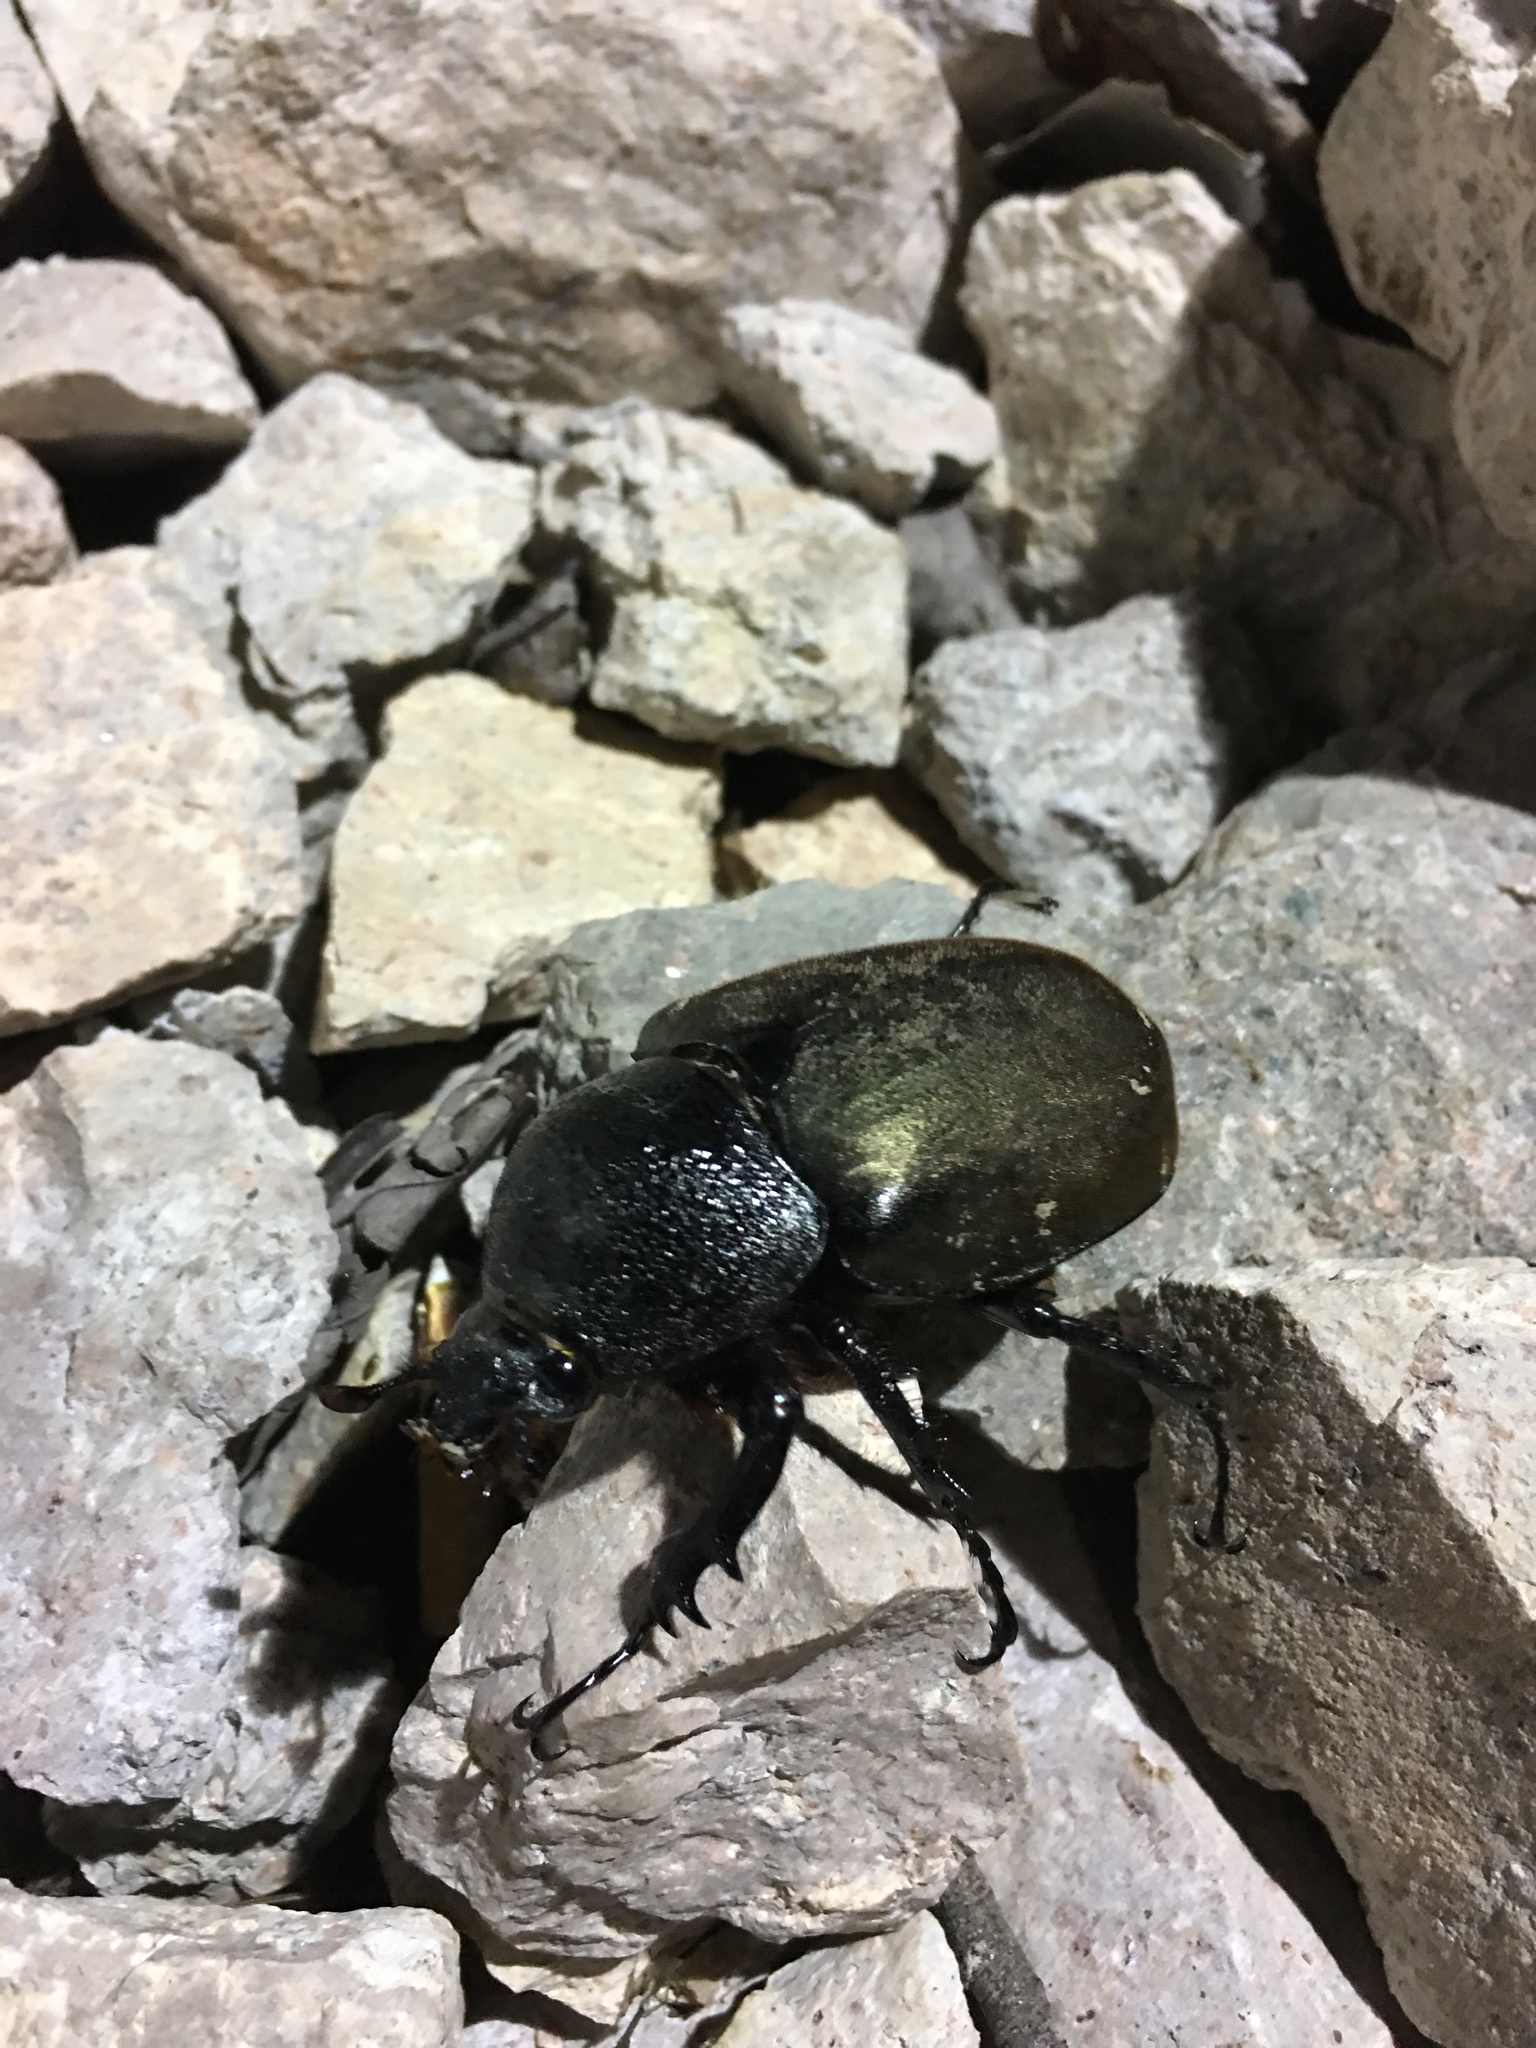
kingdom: Animalia
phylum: Arthropoda
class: Insecta
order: Coleoptera
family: Scarabaeidae
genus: Chalcosoma
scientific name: Chalcosoma atlas
